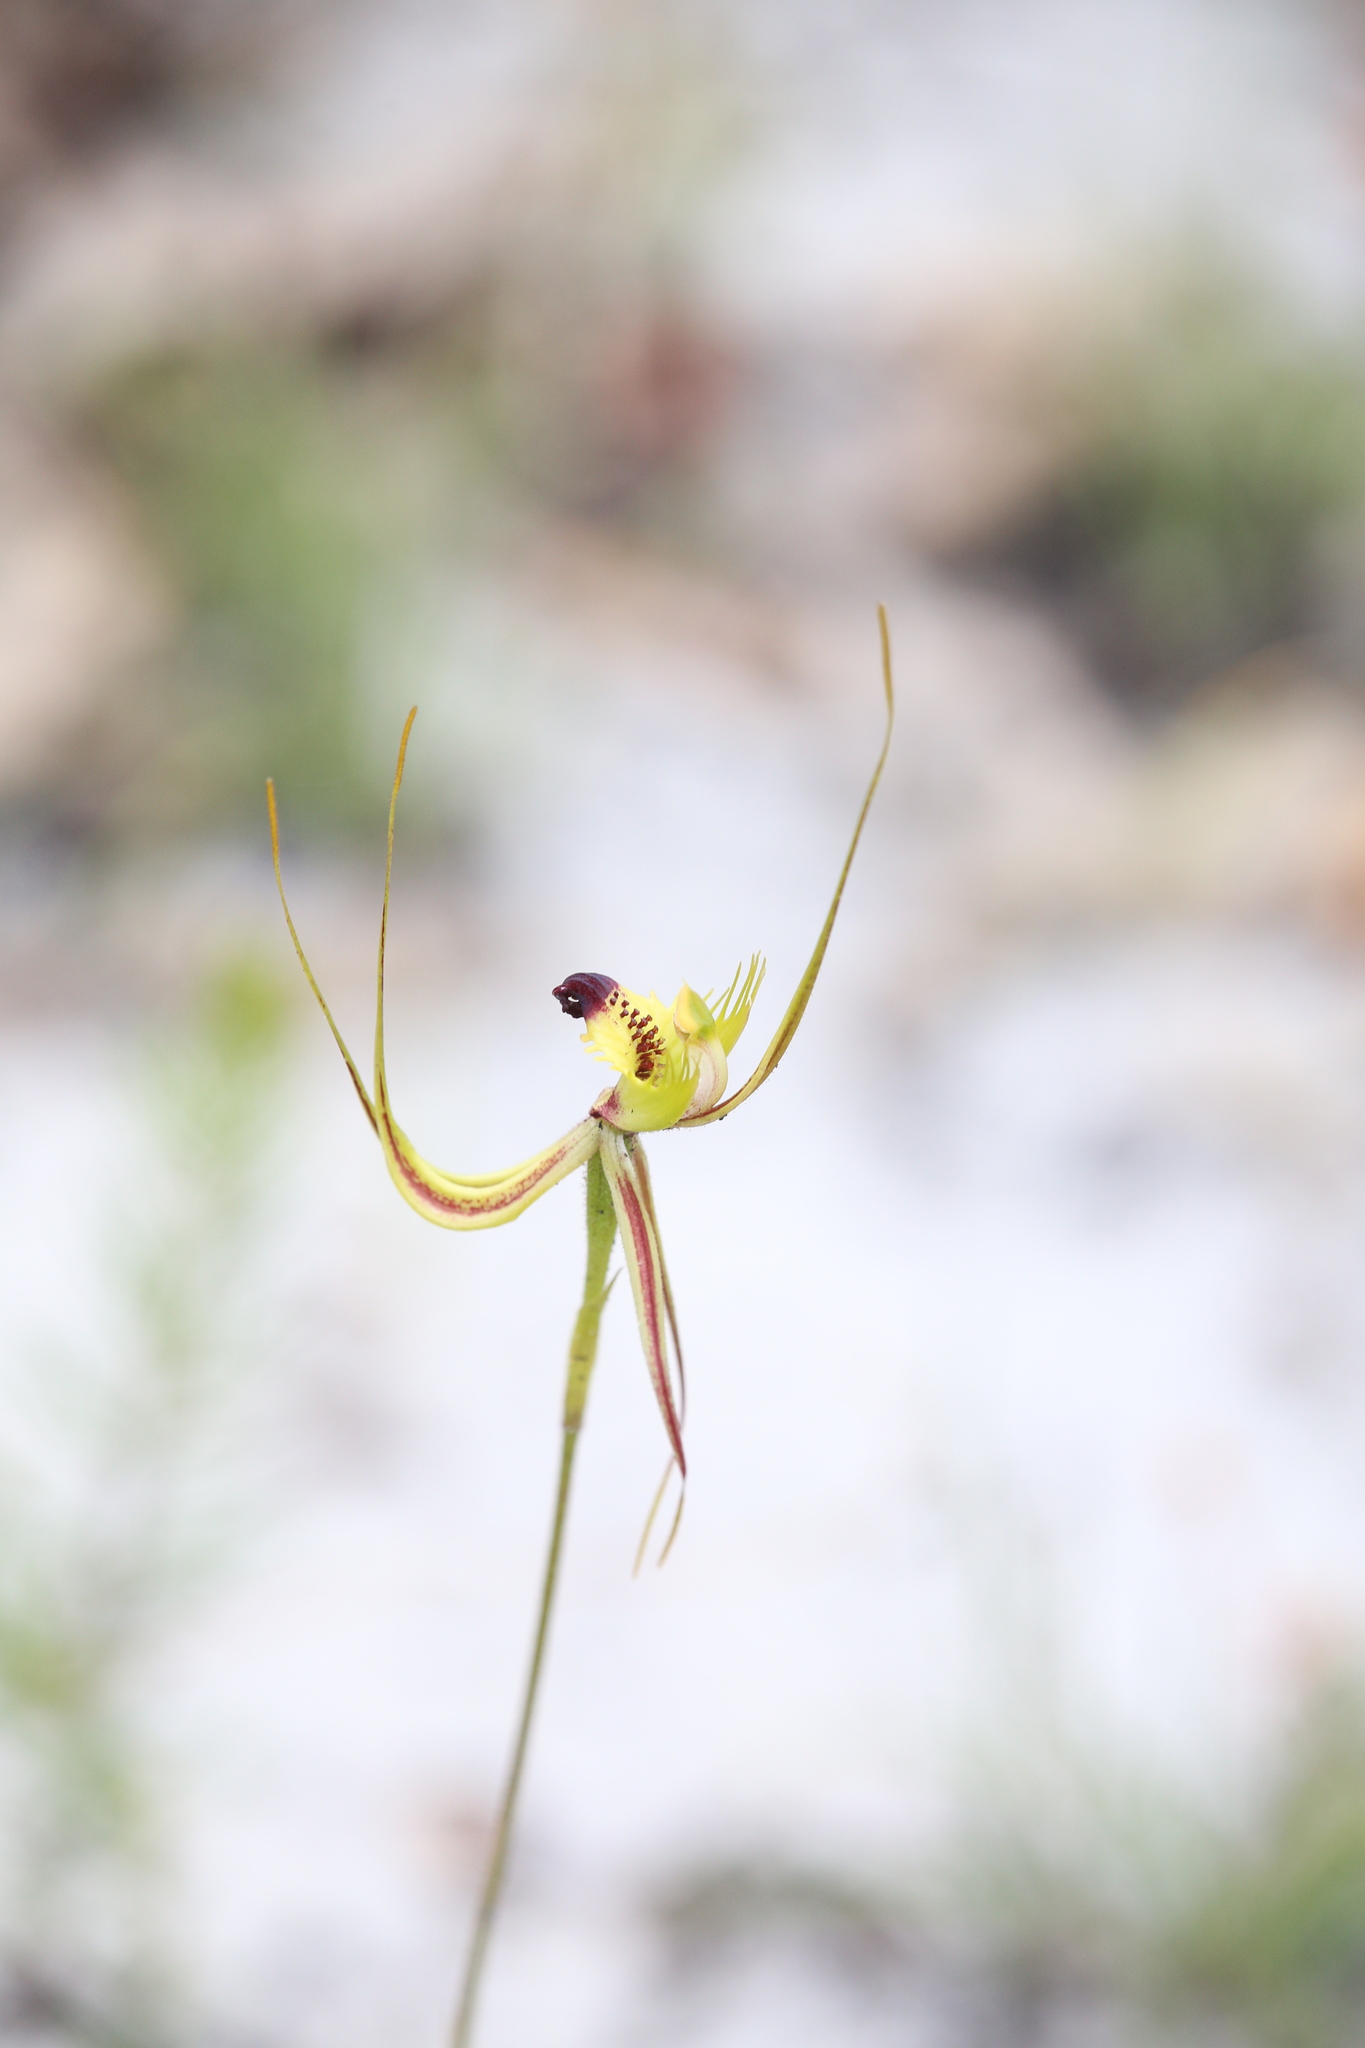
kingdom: Plantae
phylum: Tracheophyta
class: Liliopsida
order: Asparagales
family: Orchidaceae
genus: Caladenia
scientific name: Caladenia attingens
